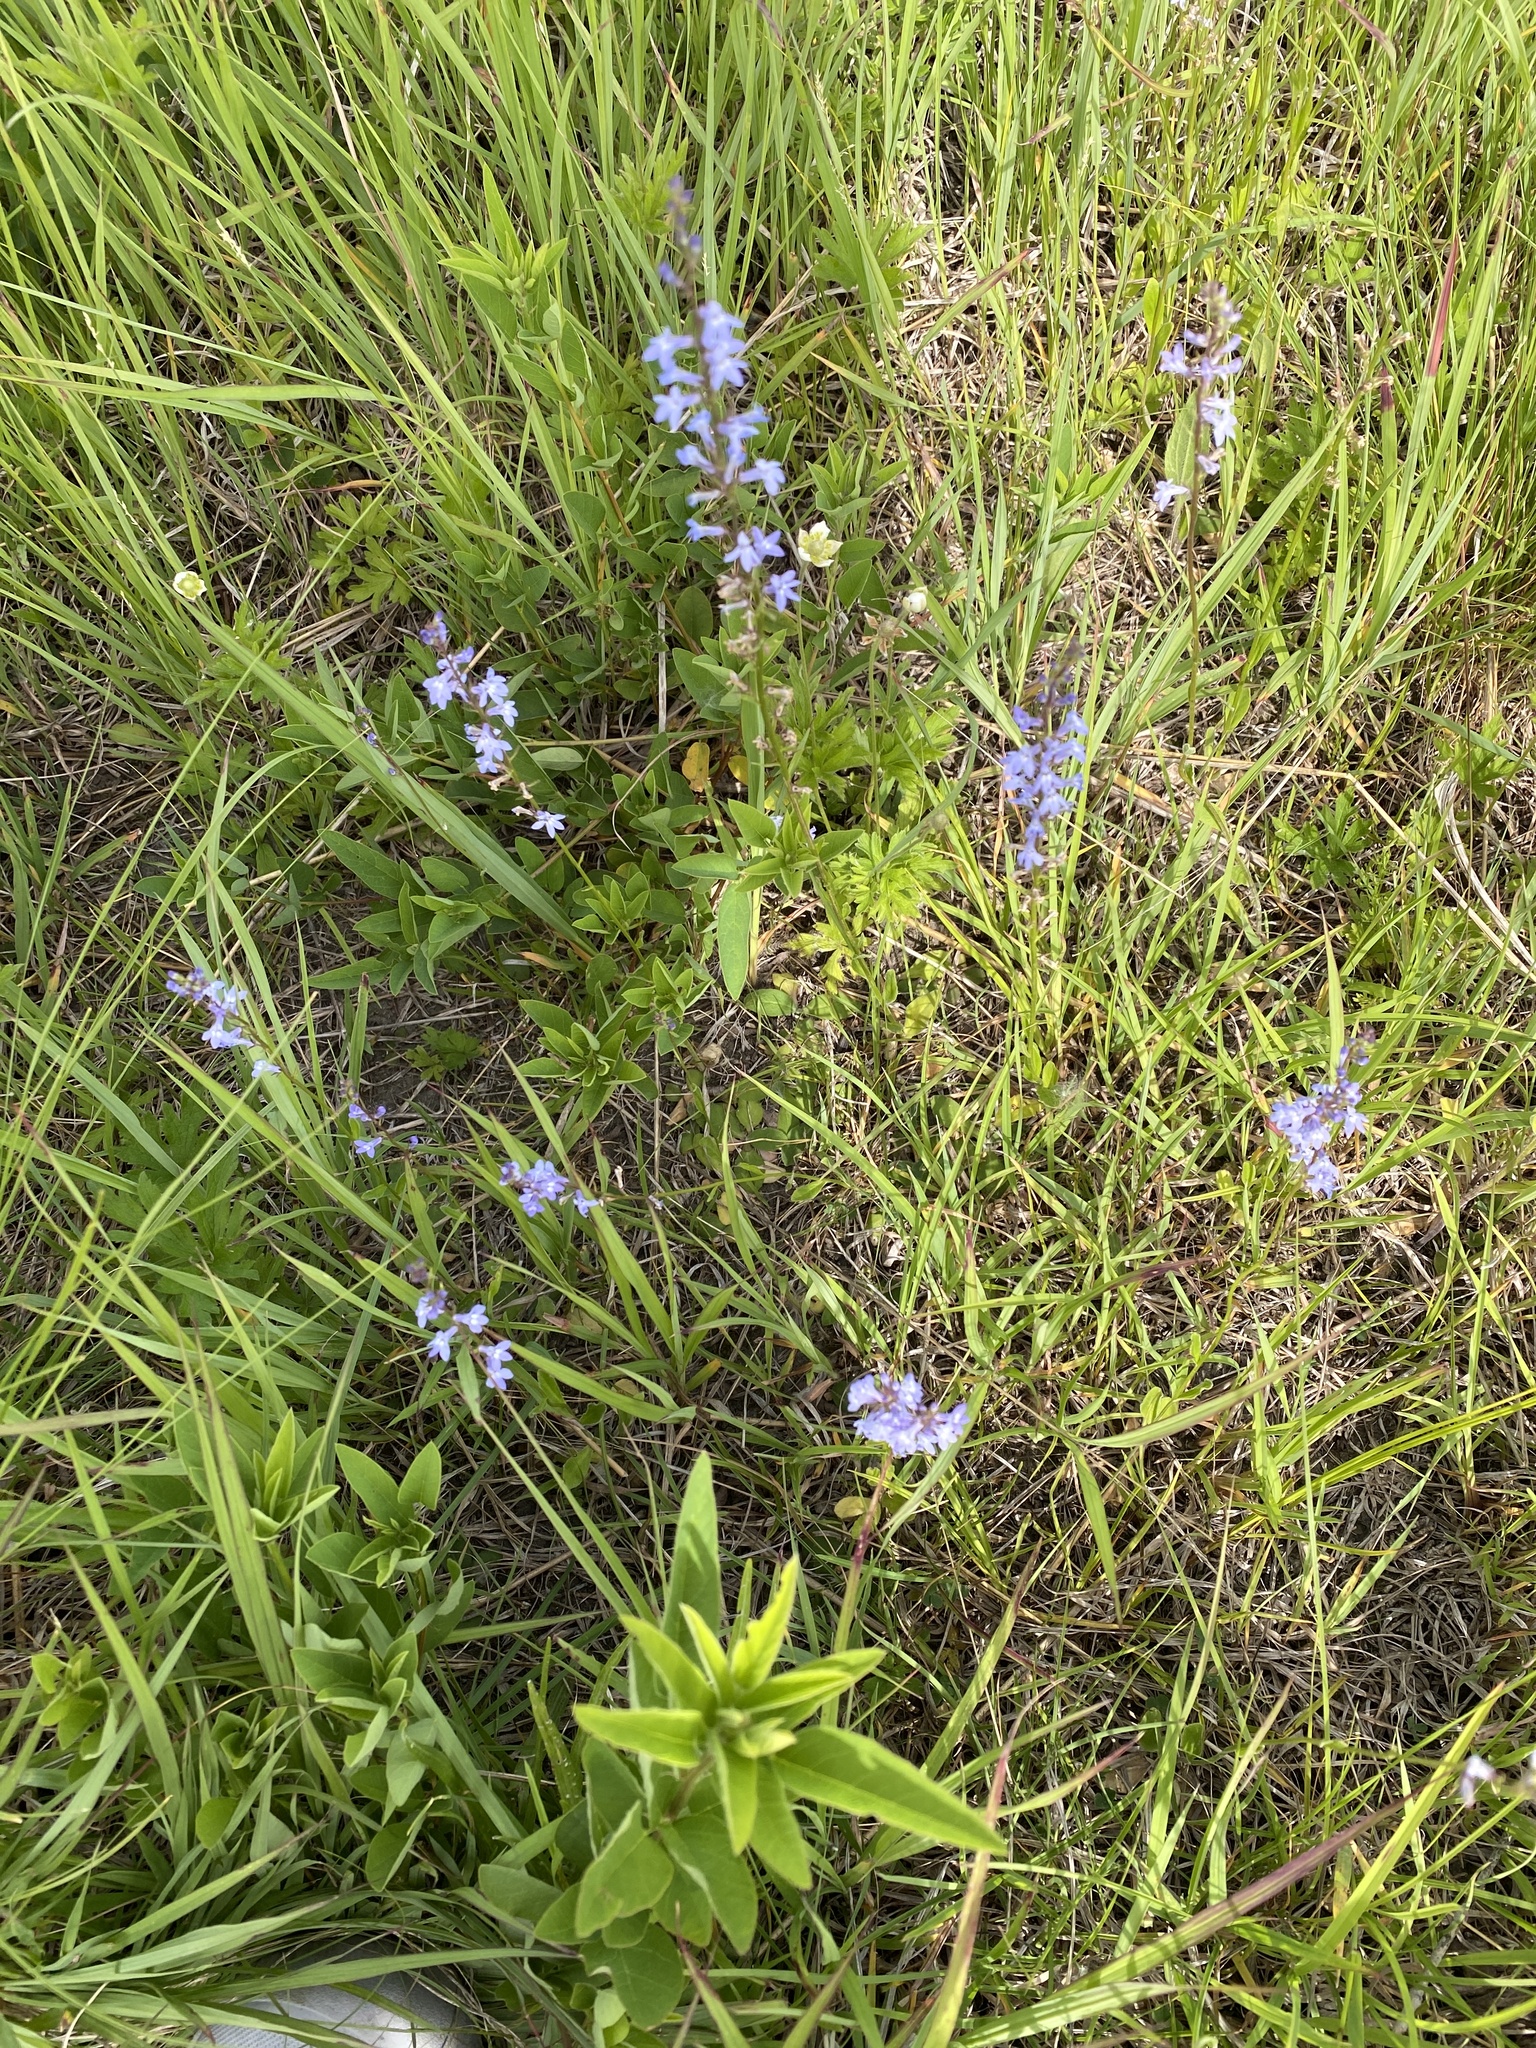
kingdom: Plantae
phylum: Tracheophyta
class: Magnoliopsida
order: Asterales
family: Campanulaceae
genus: Lobelia
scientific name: Lobelia spicata
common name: Pale-spike lobelia
